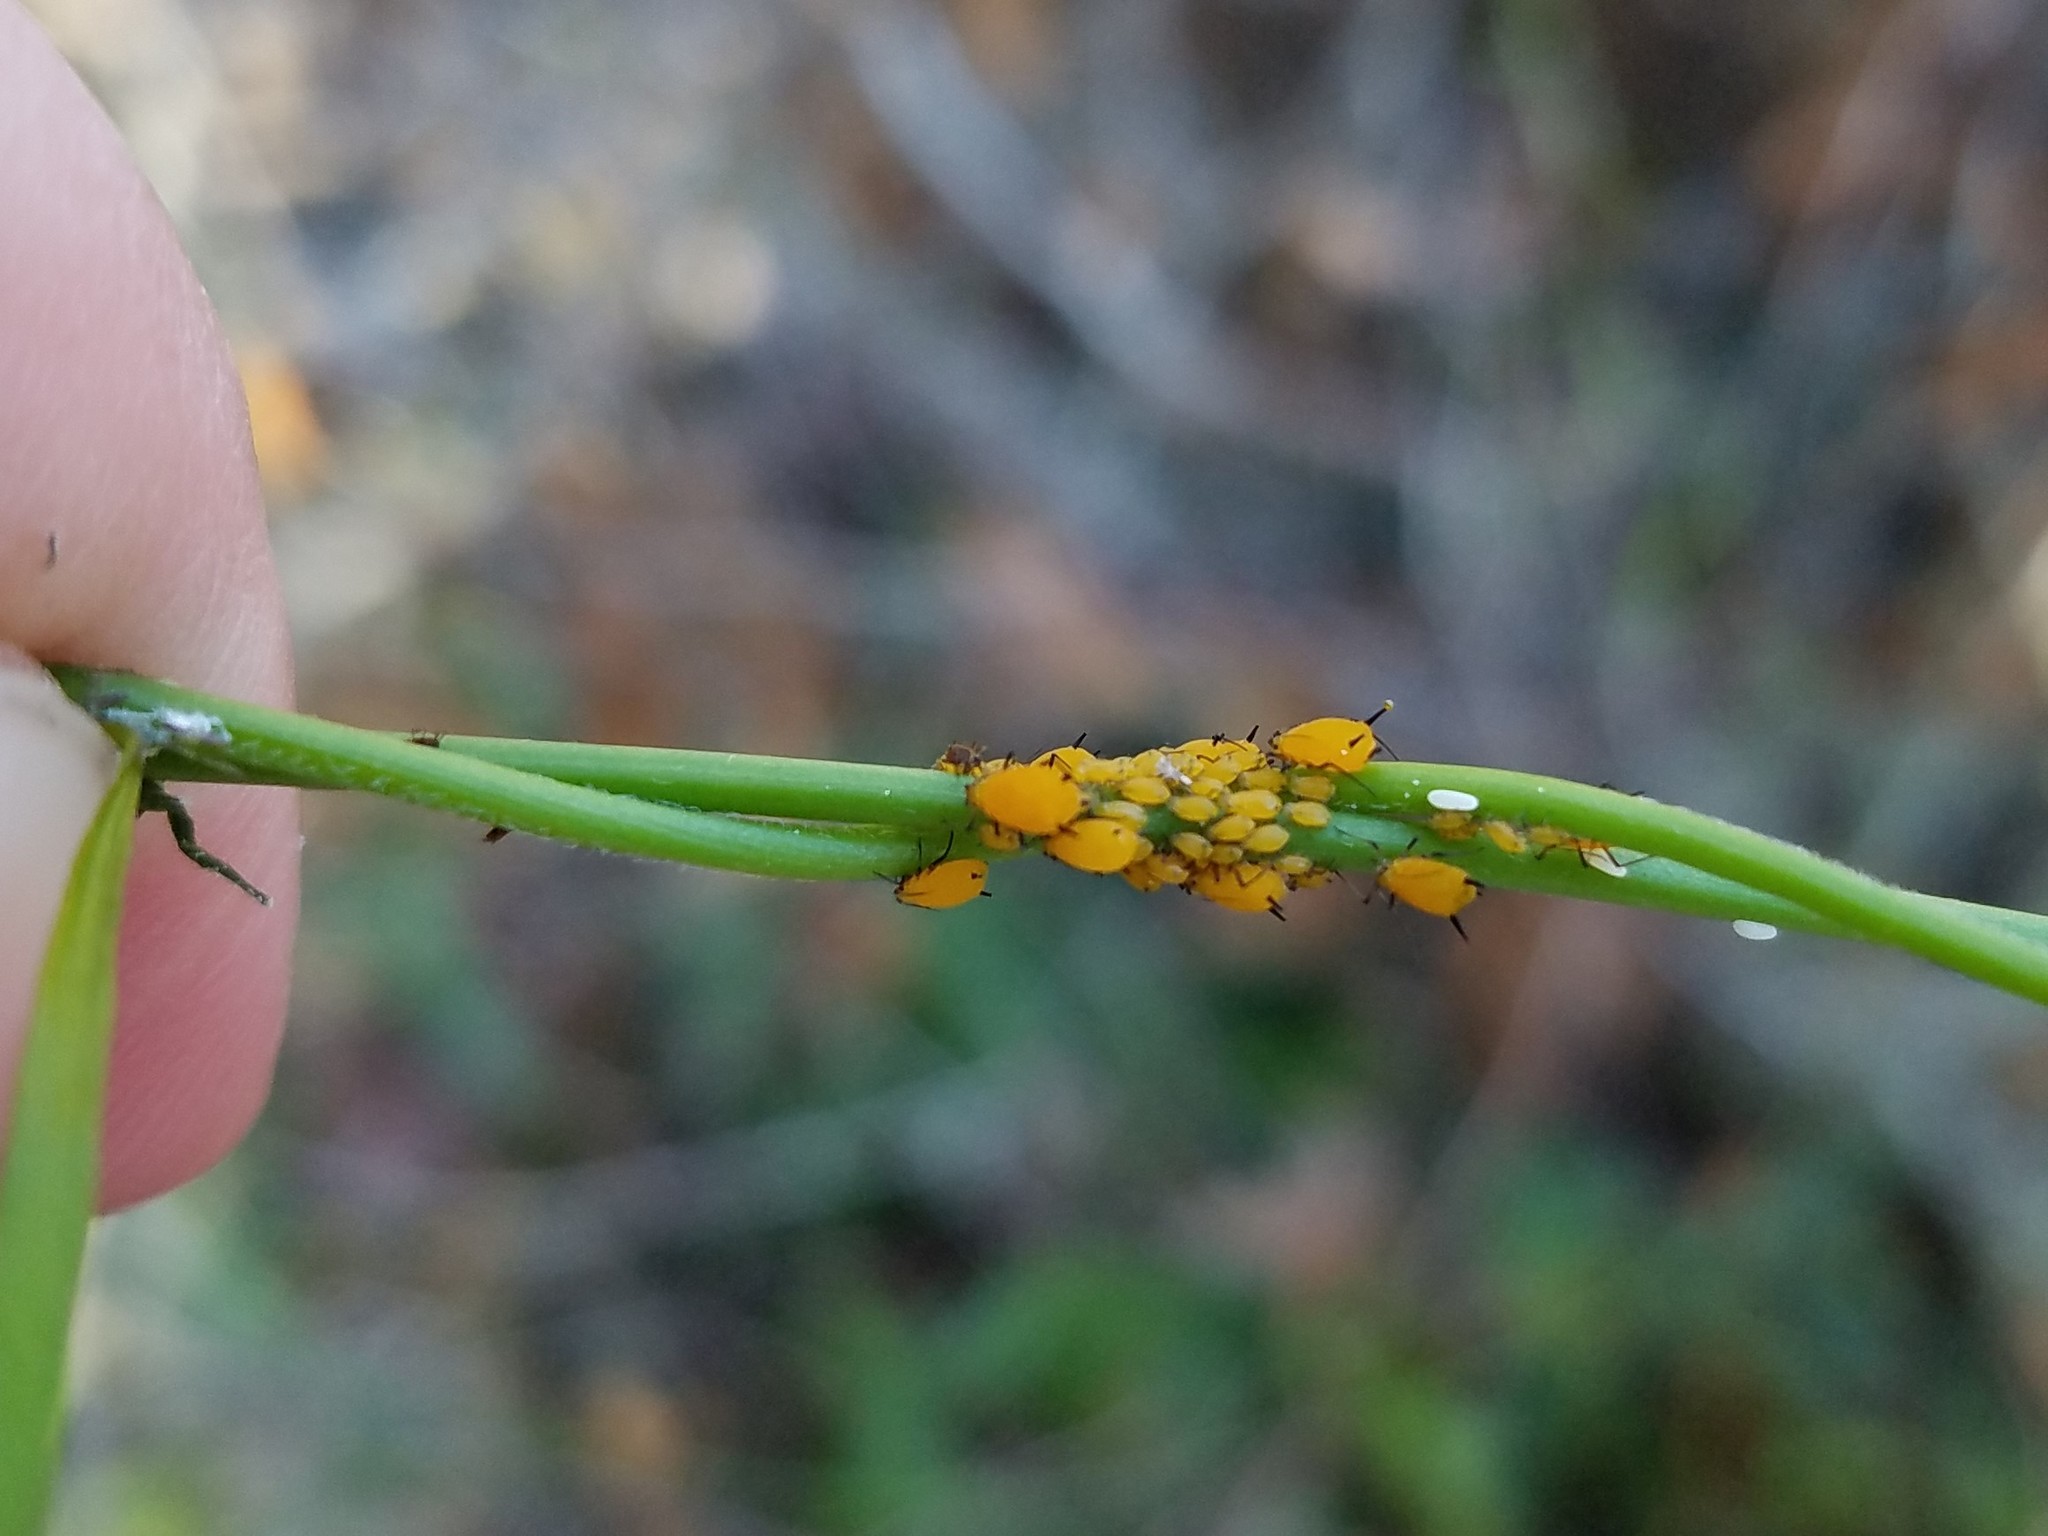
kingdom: Animalia
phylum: Arthropoda
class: Insecta
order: Hemiptera
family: Aphididae
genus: Aphis
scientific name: Aphis nerii
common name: Oleander aphid
